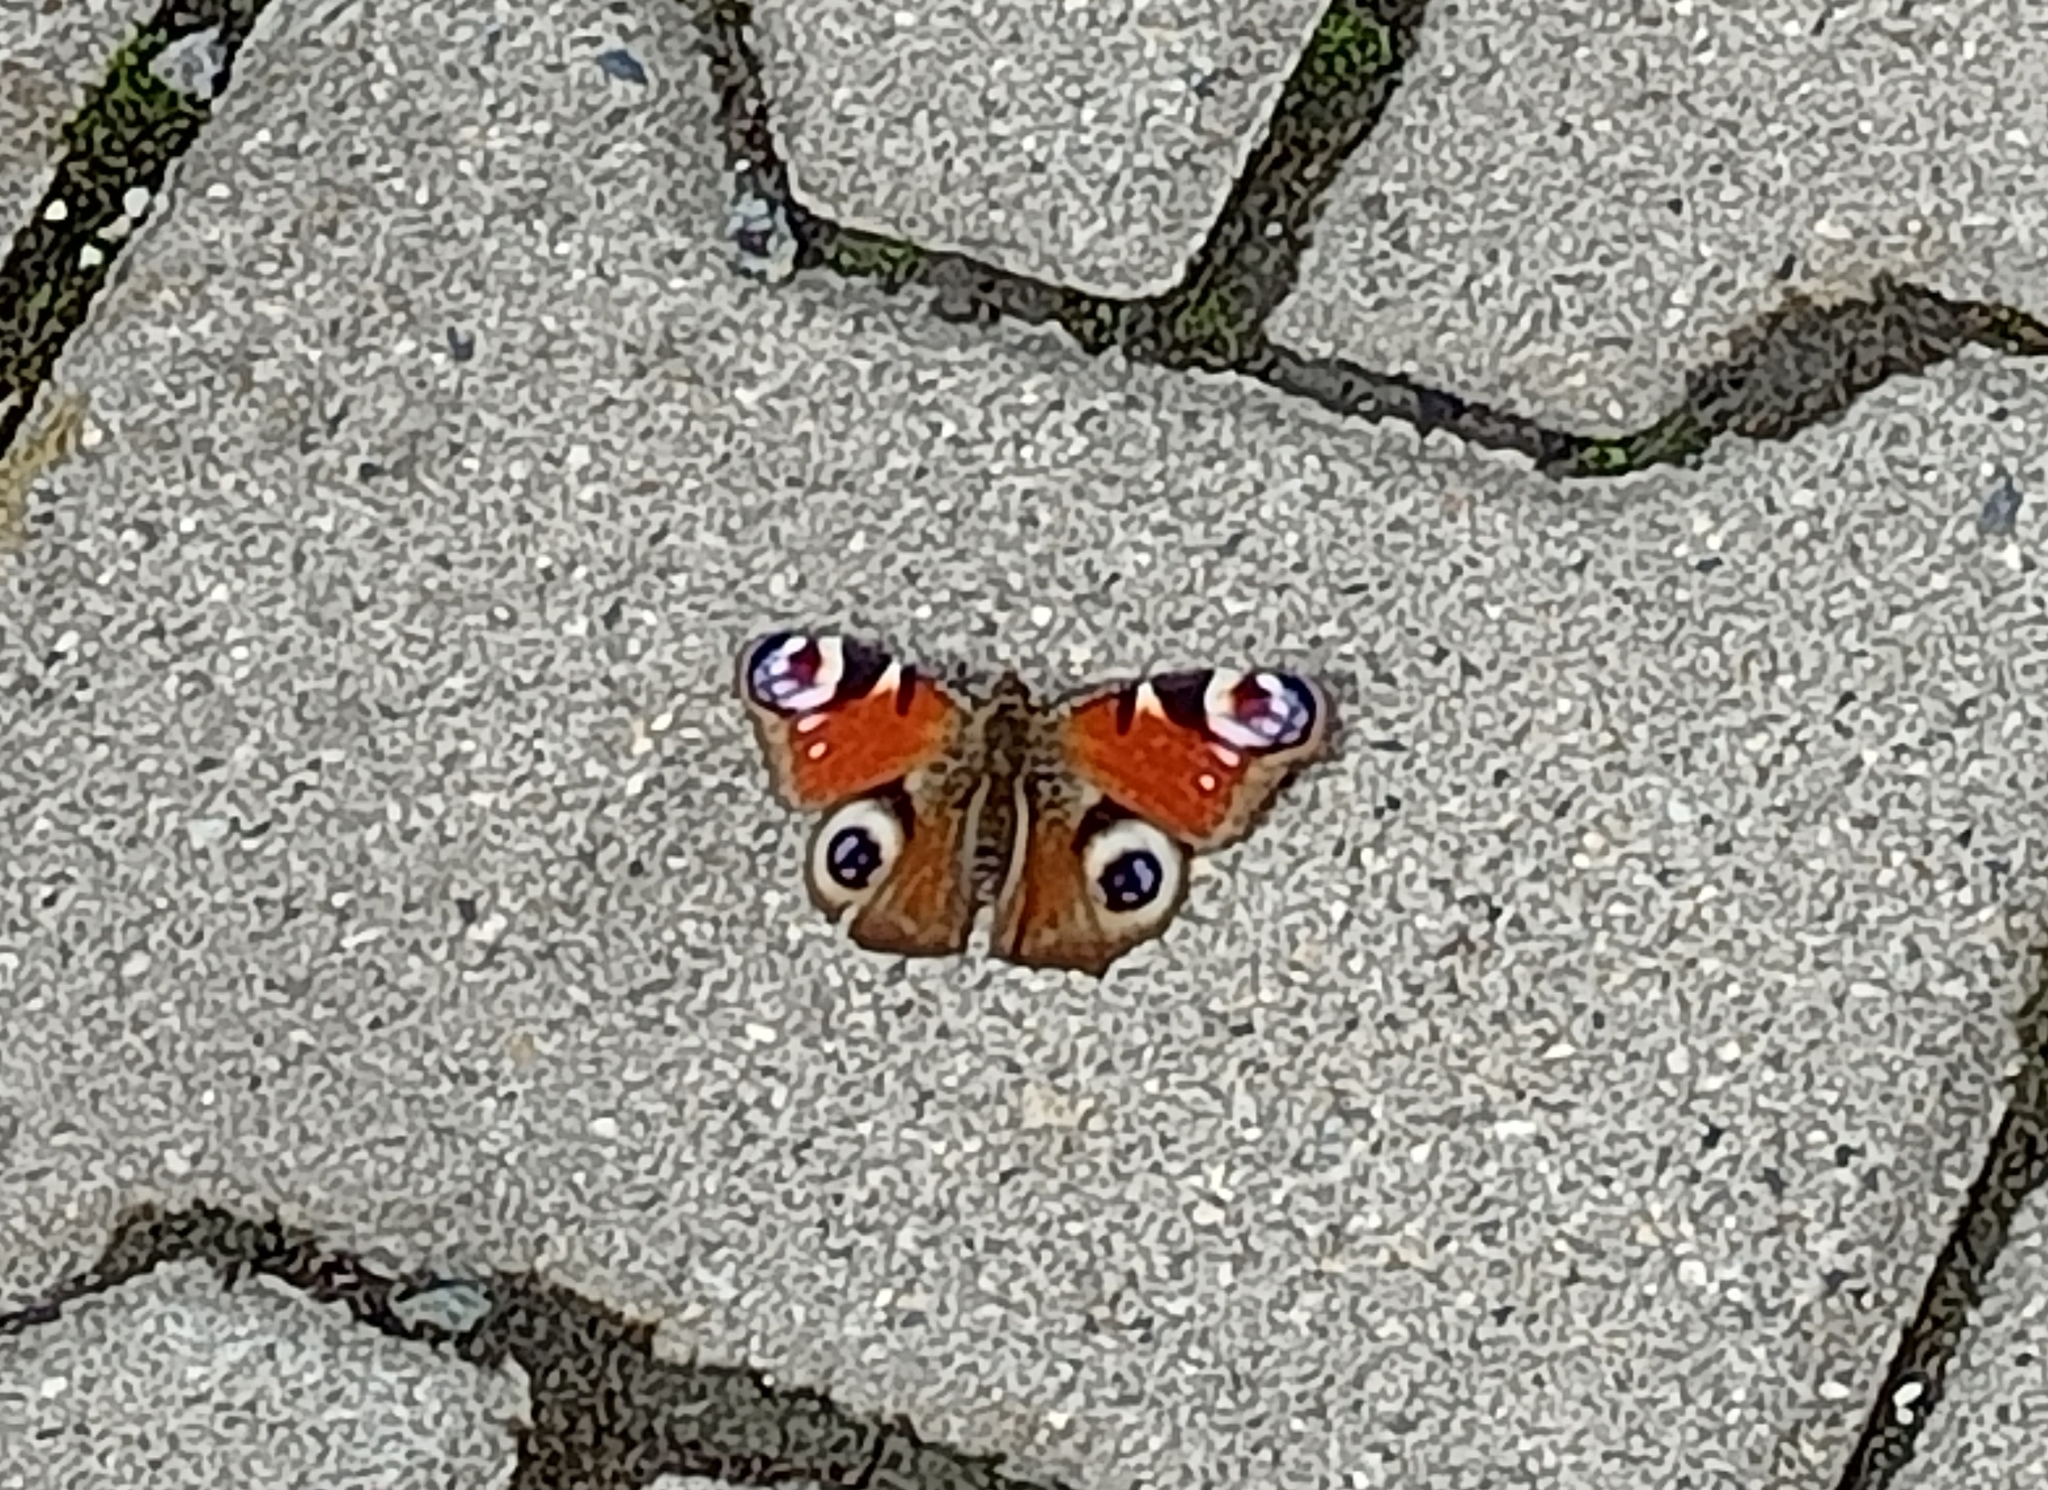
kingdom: Animalia
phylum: Arthropoda
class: Insecta
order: Lepidoptera
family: Nymphalidae
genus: Aglais
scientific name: Aglais io
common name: Peacock
